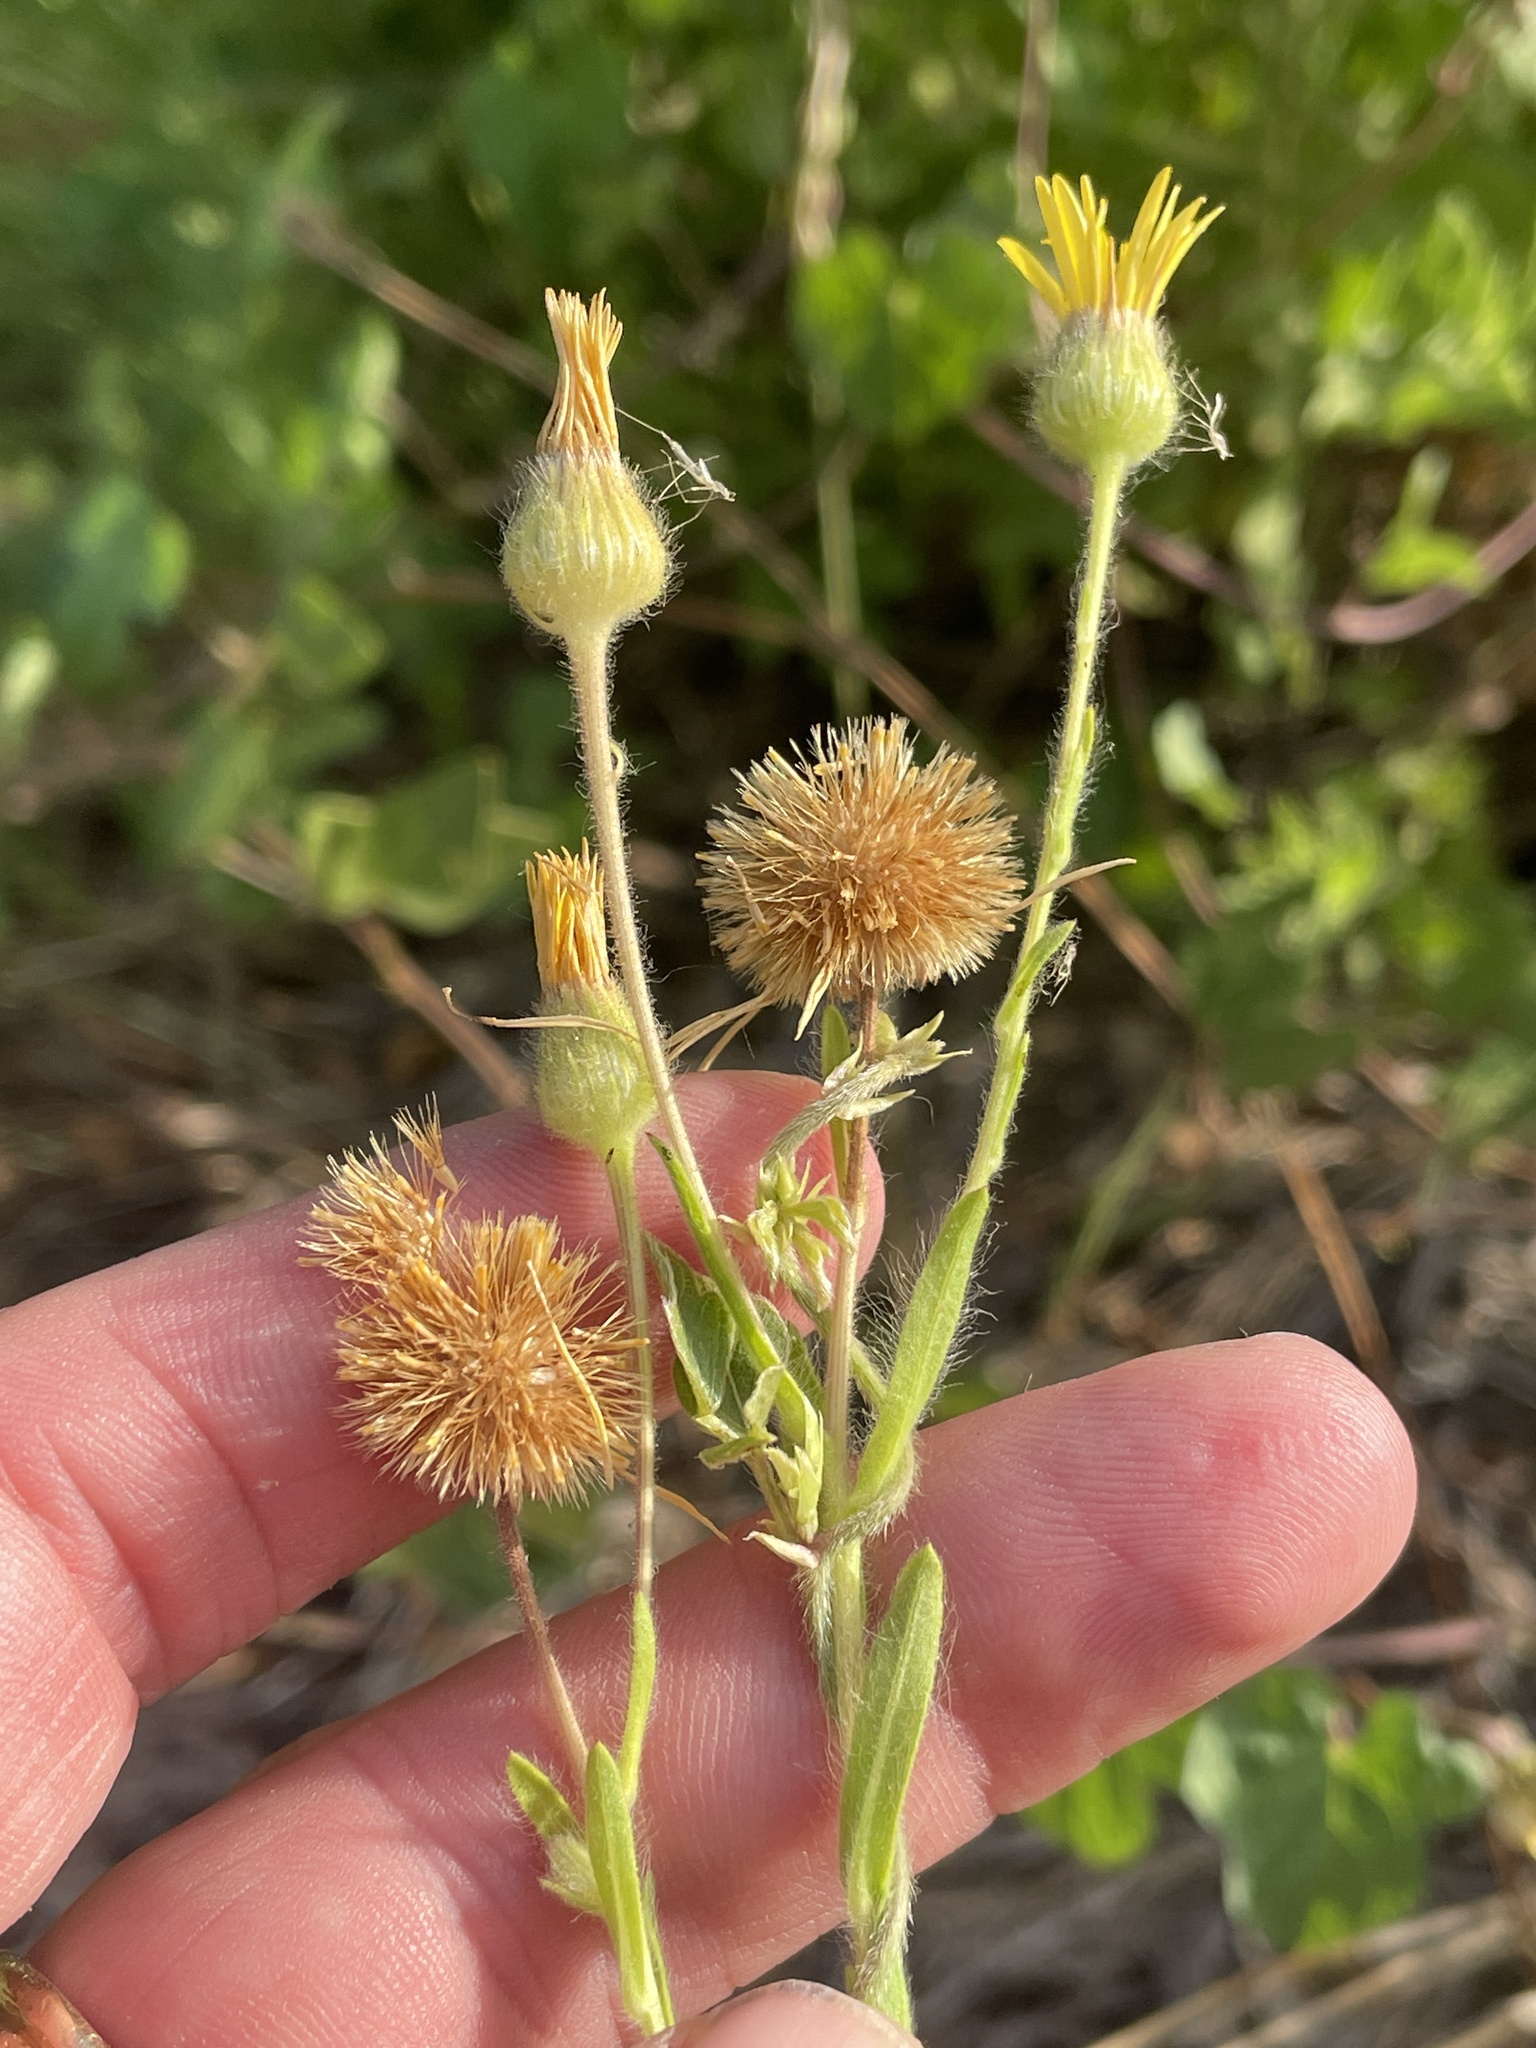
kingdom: Plantae
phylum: Tracheophyta
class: Magnoliopsida
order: Asterales
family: Asteraceae
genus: Bradburia
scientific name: Bradburia pilosa
